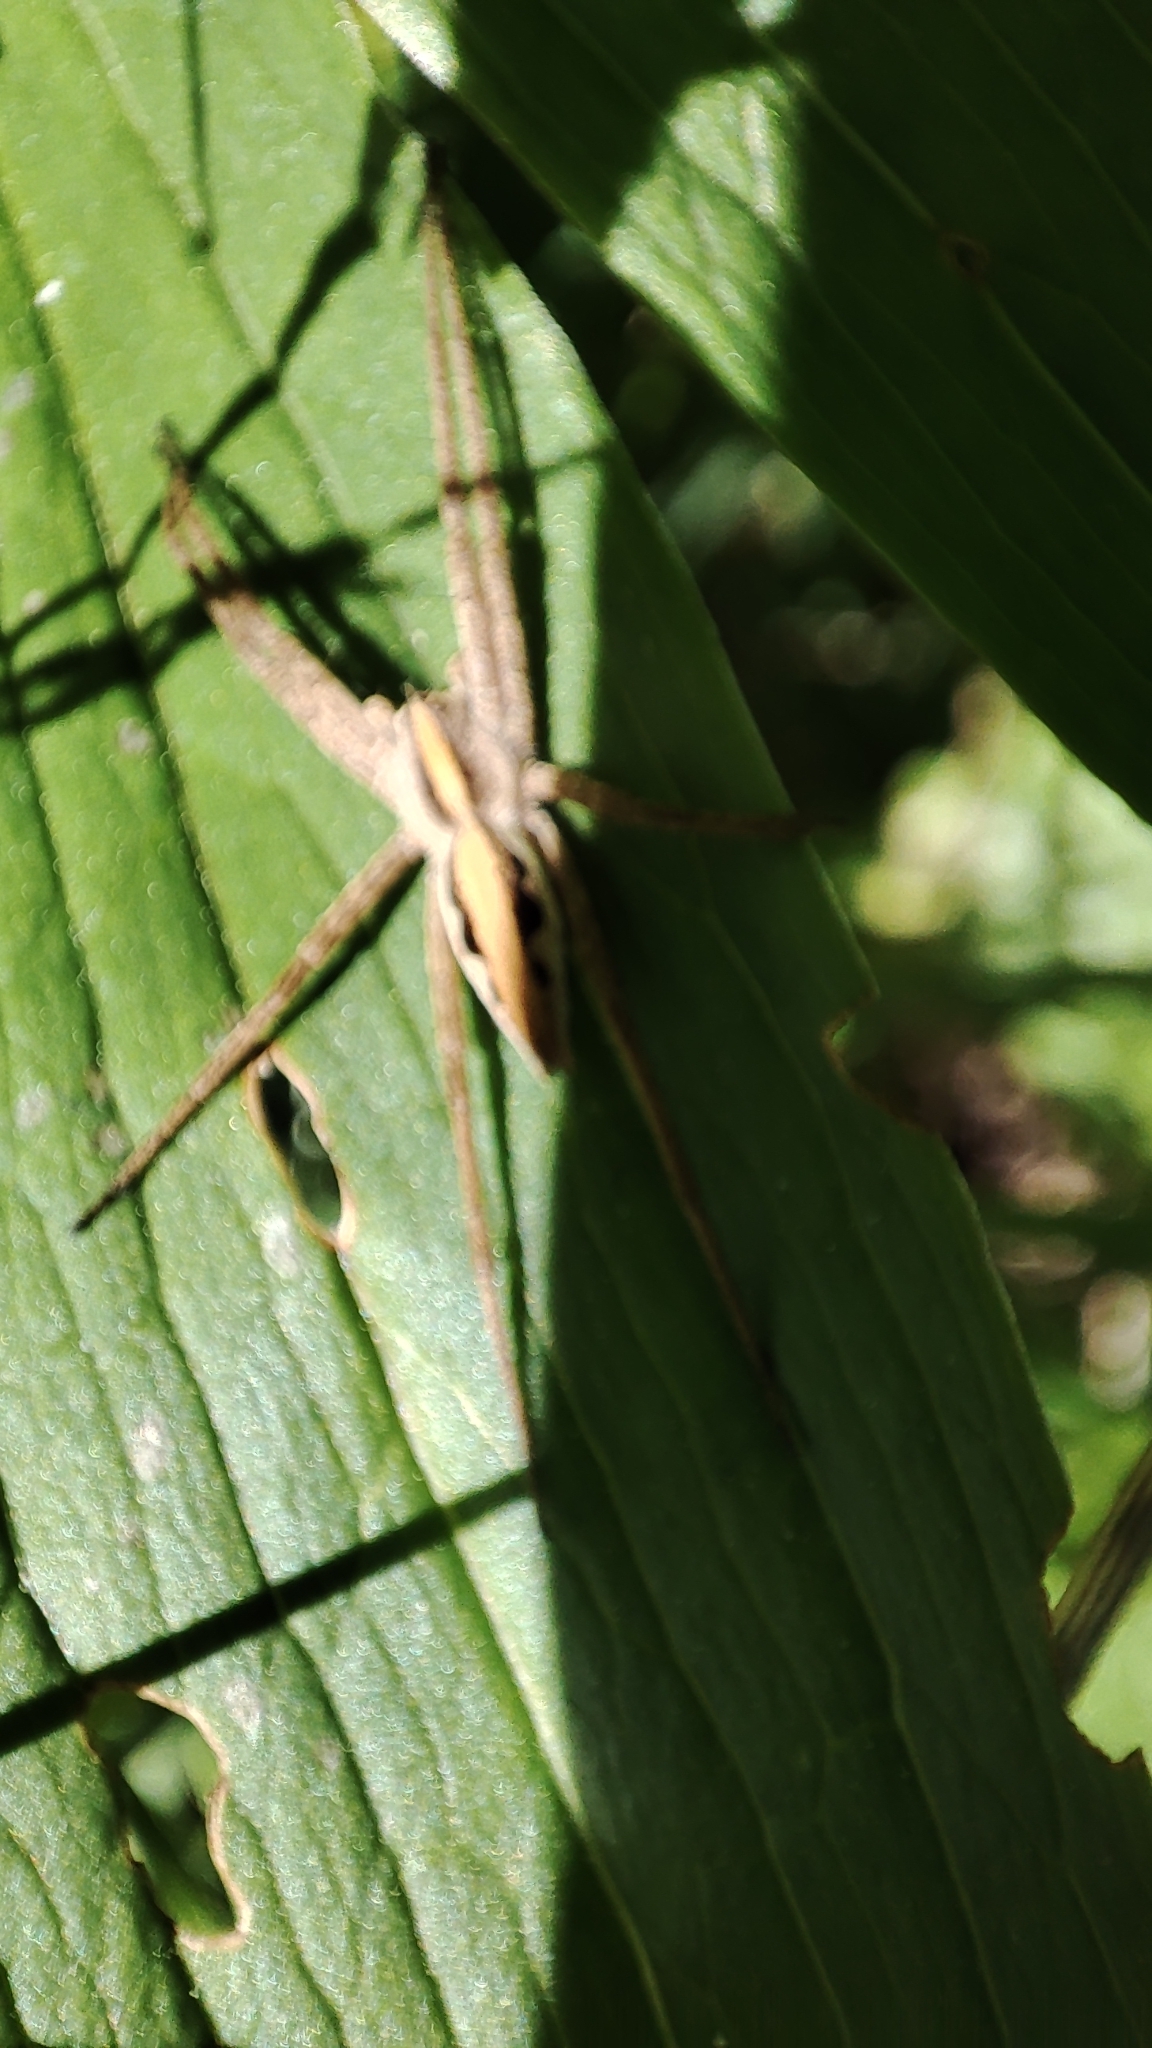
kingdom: Animalia
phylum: Arthropoda
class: Arachnida
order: Araneae
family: Pisauridae
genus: Pisaura
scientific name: Pisaura mirabilis
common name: Tent spider
